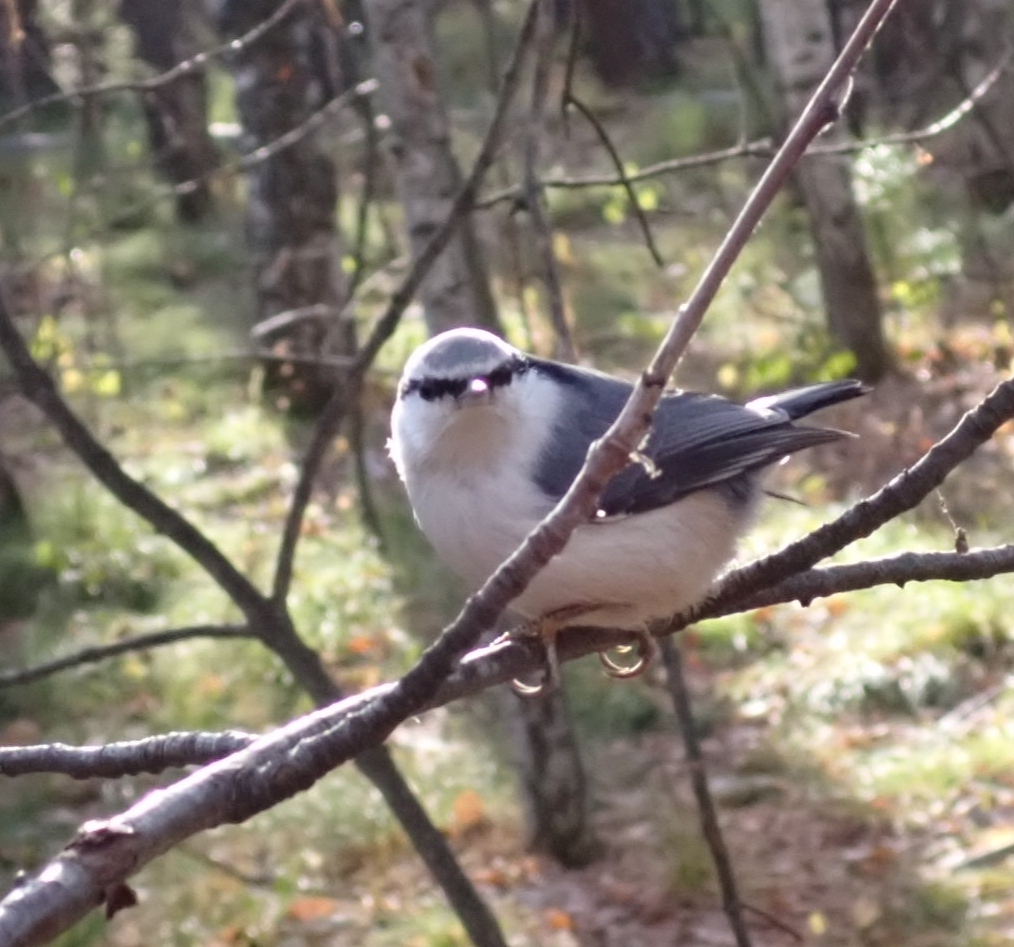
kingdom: Animalia
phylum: Chordata
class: Aves
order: Passeriformes
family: Sittidae
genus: Sitta
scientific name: Sitta europaea
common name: Eurasian nuthatch
